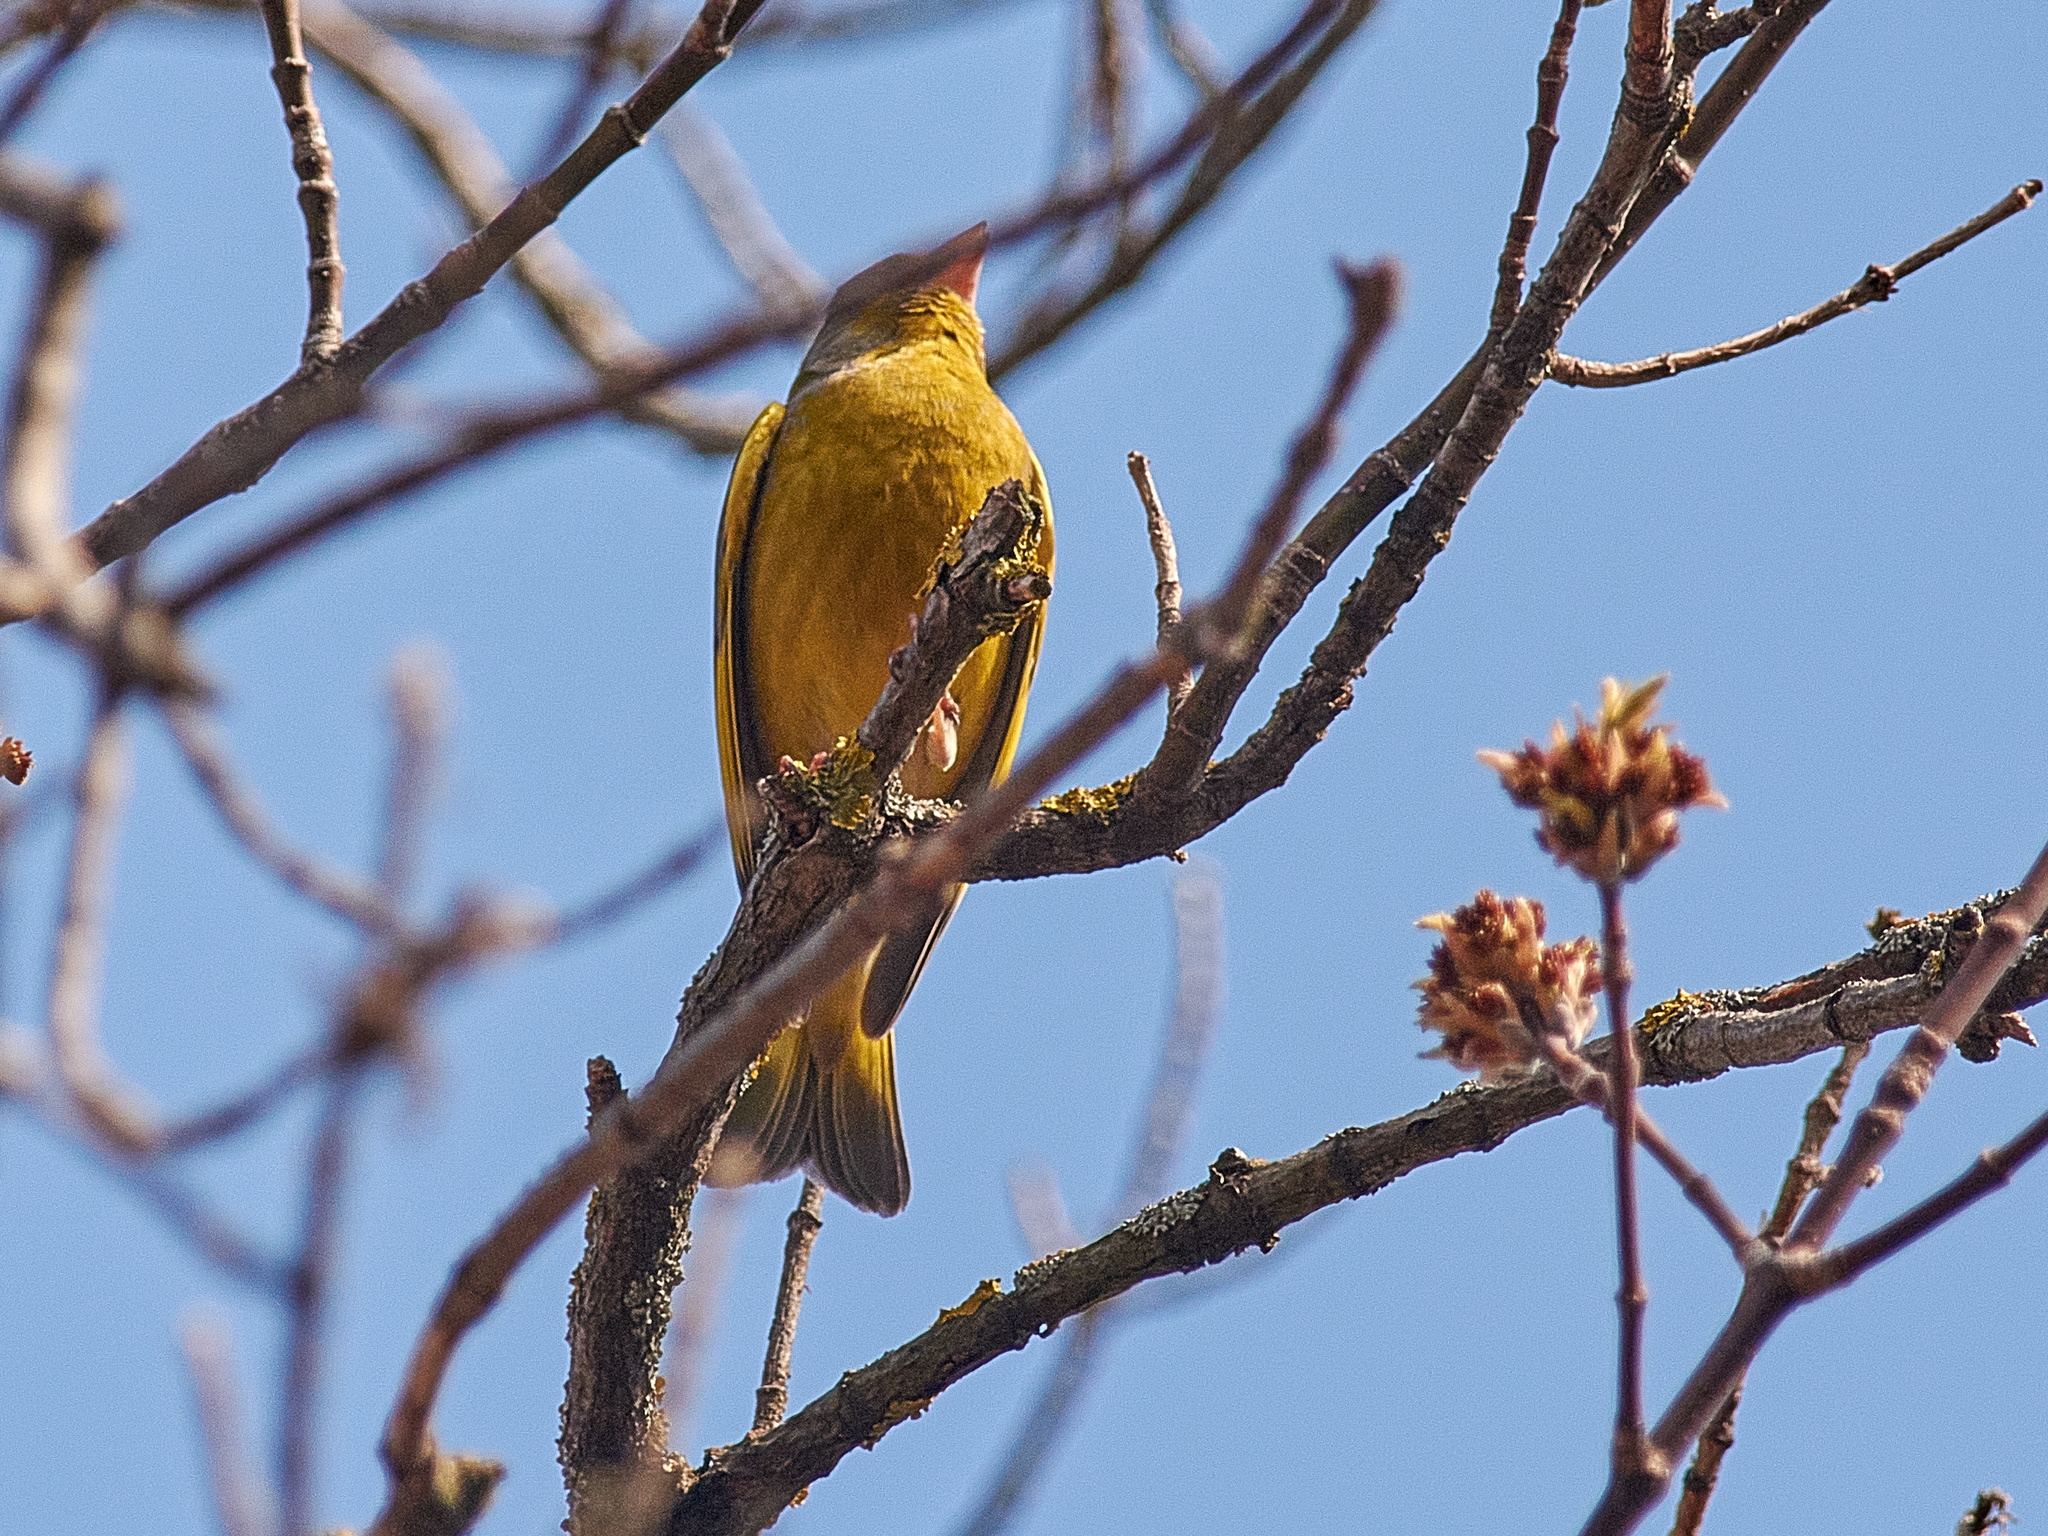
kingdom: Plantae
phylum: Tracheophyta
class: Liliopsida
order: Poales
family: Poaceae
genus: Chloris
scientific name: Chloris chloris
